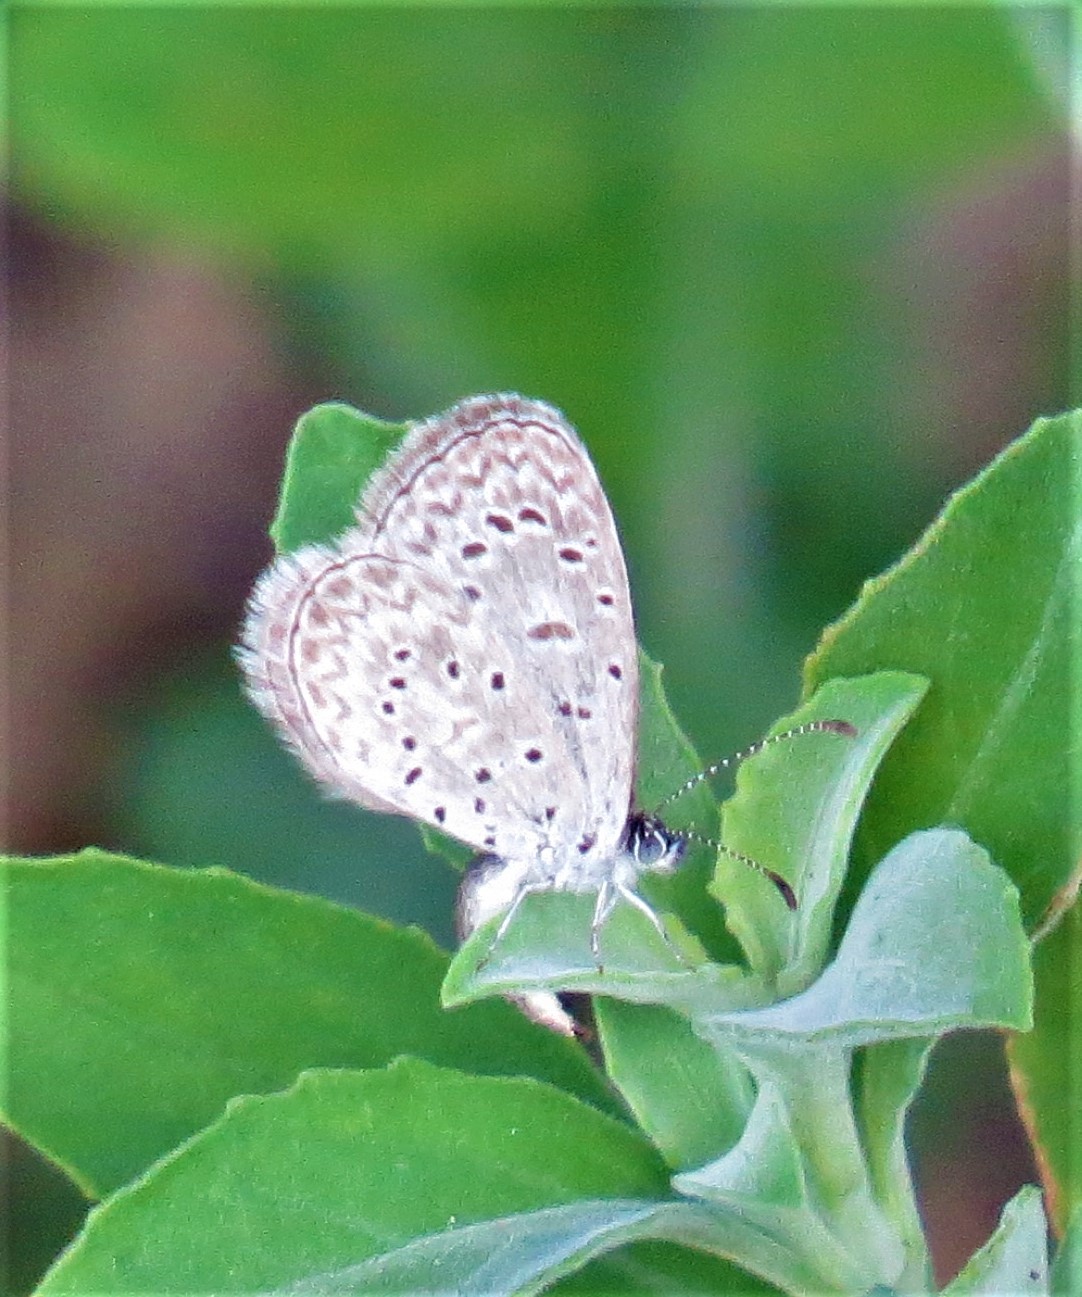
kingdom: Animalia
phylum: Arthropoda
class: Insecta
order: Lepidoptera
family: Lycaenidae
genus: Lycaena
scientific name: Lycaena cyna
